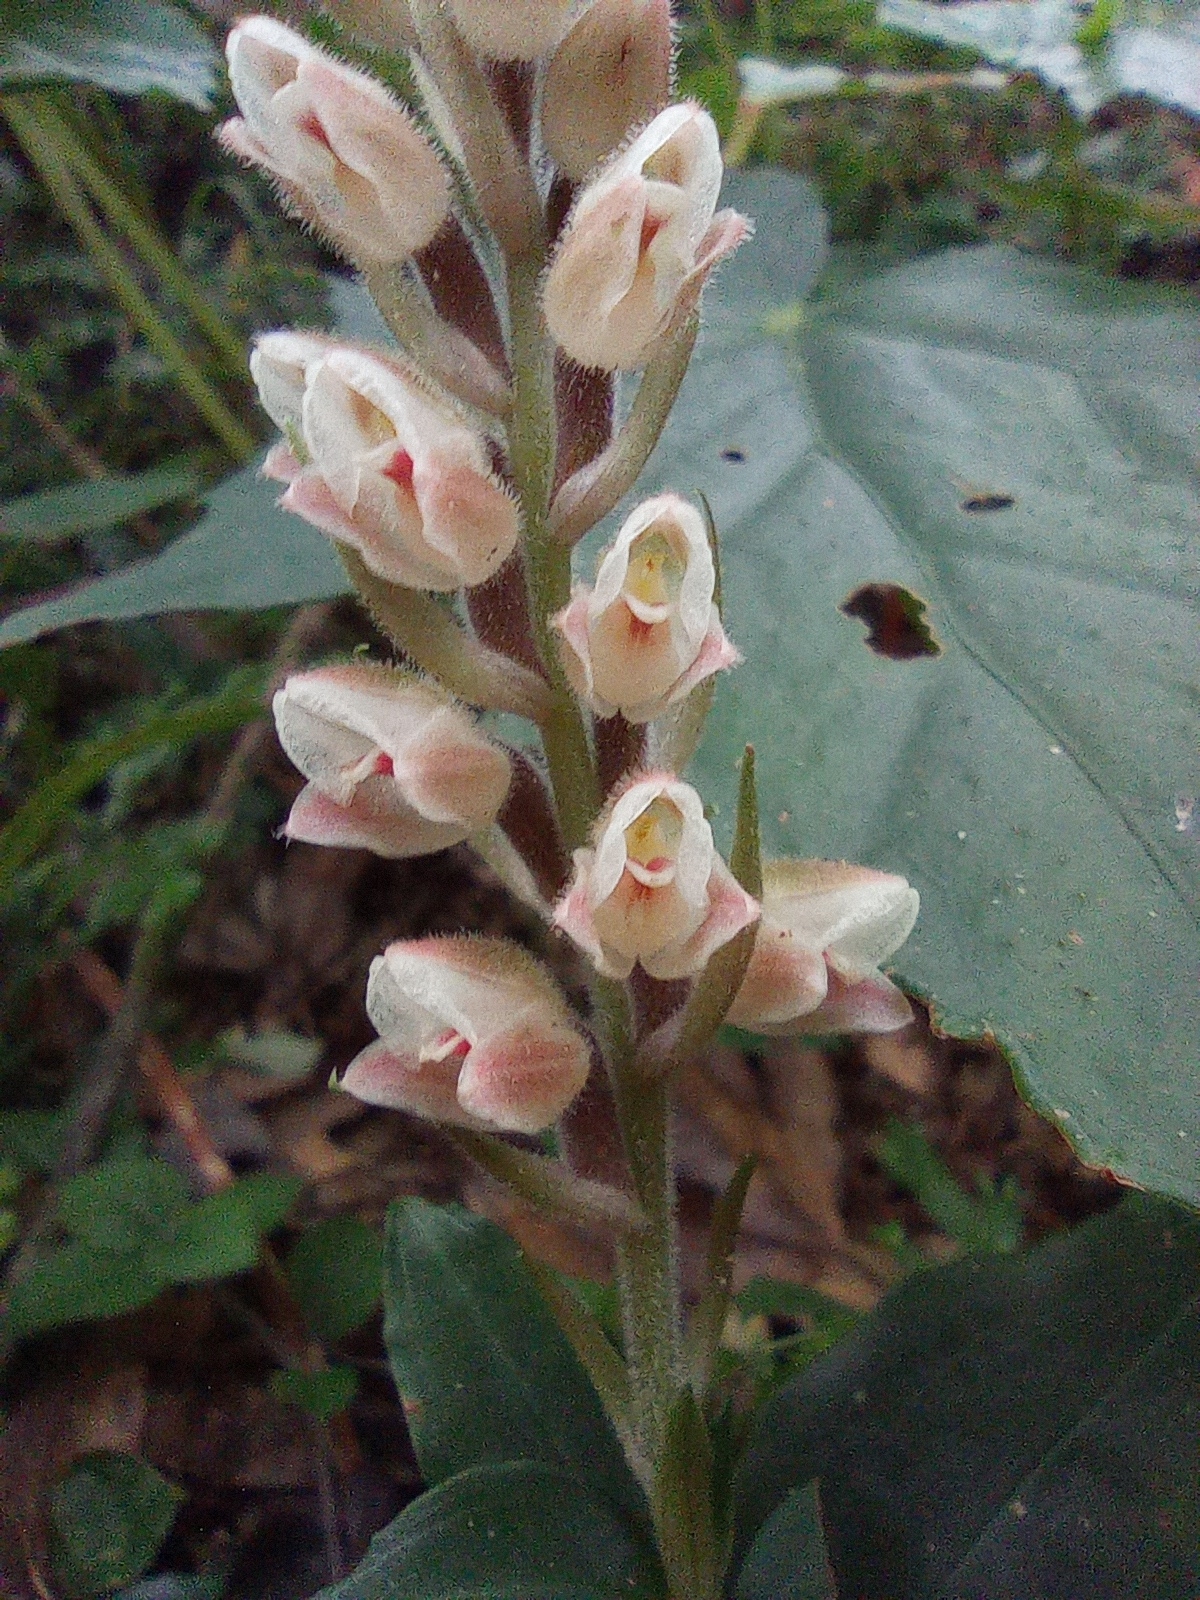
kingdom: Plantae
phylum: Tracheophyta
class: Liliopsida
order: Asparagales
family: Orchidaceae
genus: Goodyera
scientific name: Goodyera foliosa
